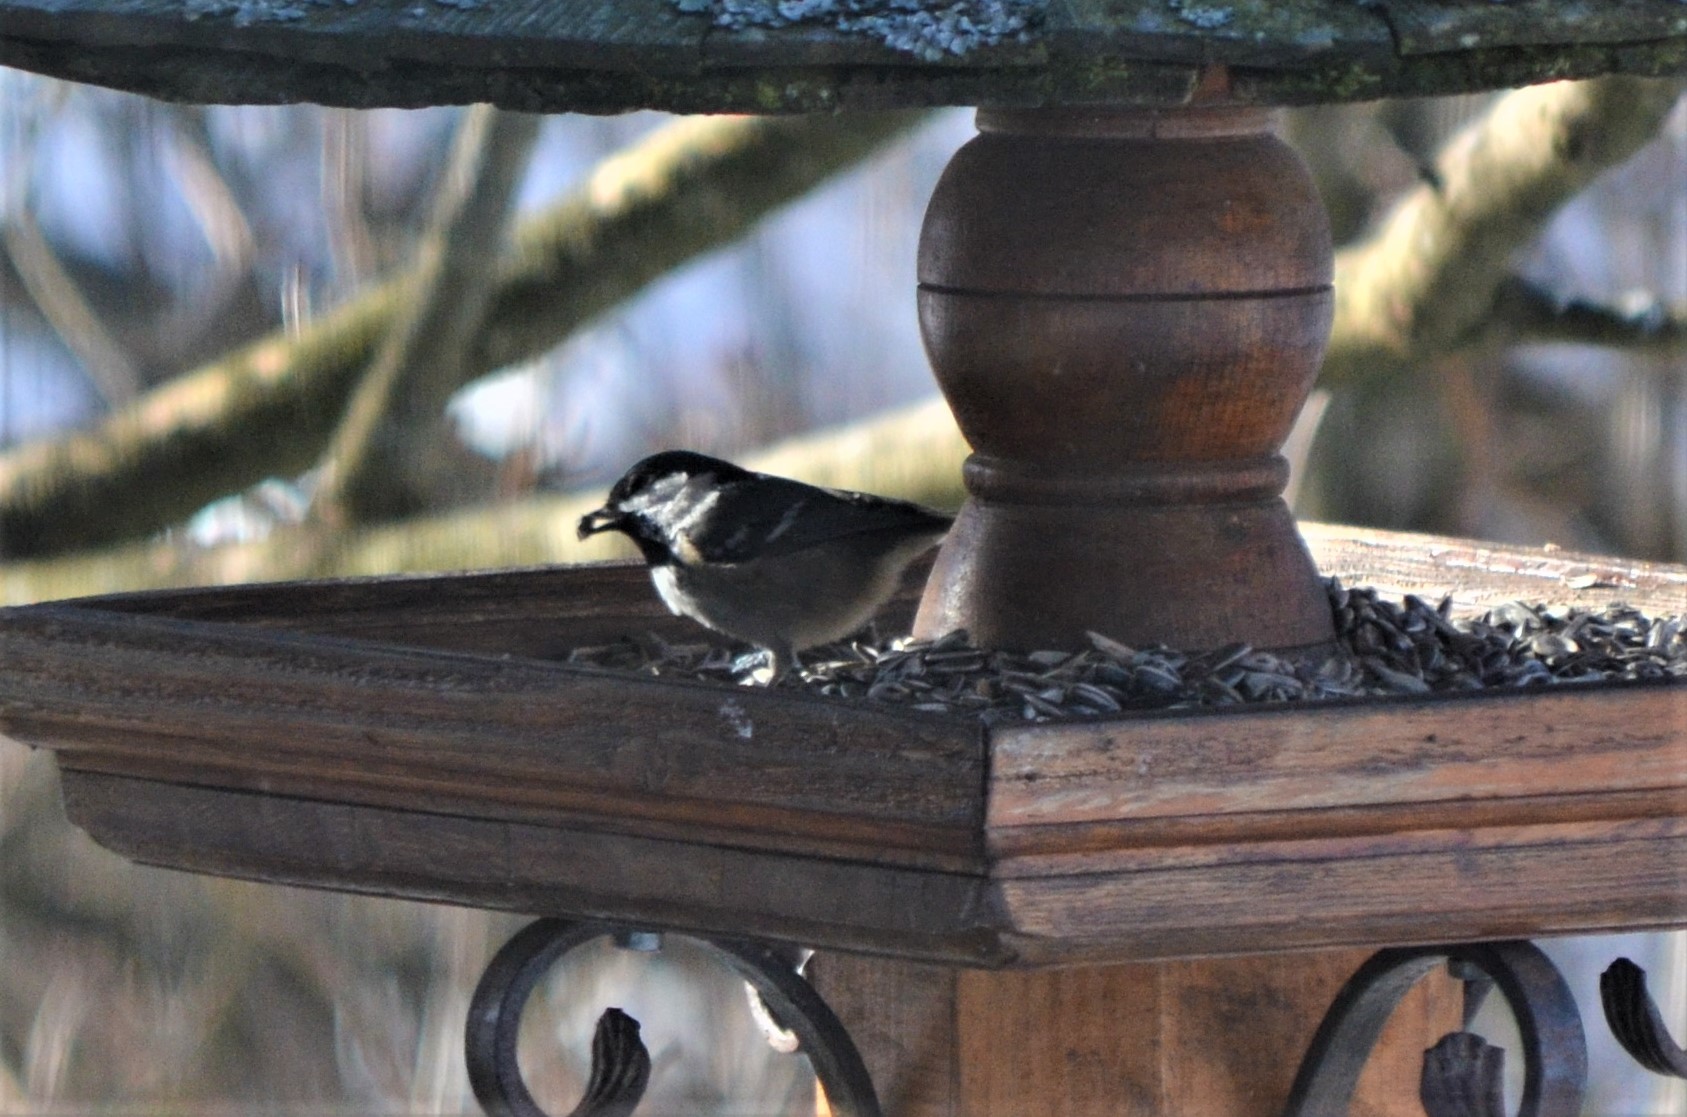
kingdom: Animalia
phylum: Chordata
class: Aves
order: Passeriformes
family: Paridae
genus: Periparus
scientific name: Periparus ater
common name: Coal tit
